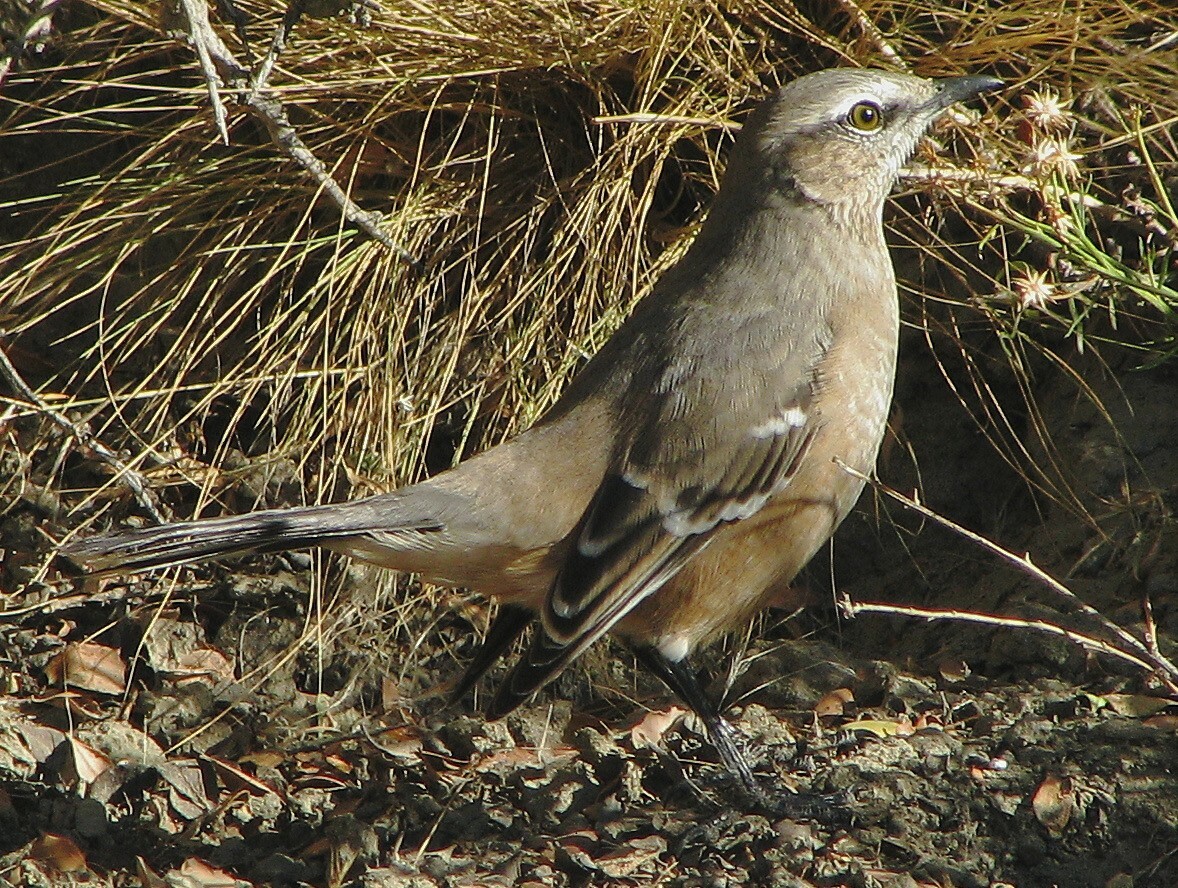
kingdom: Animalia
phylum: Chordata
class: Aves
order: Passeriformes
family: Mimidae
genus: Mimus
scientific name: Mimus patagonicus
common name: Patagonian mockingbird
